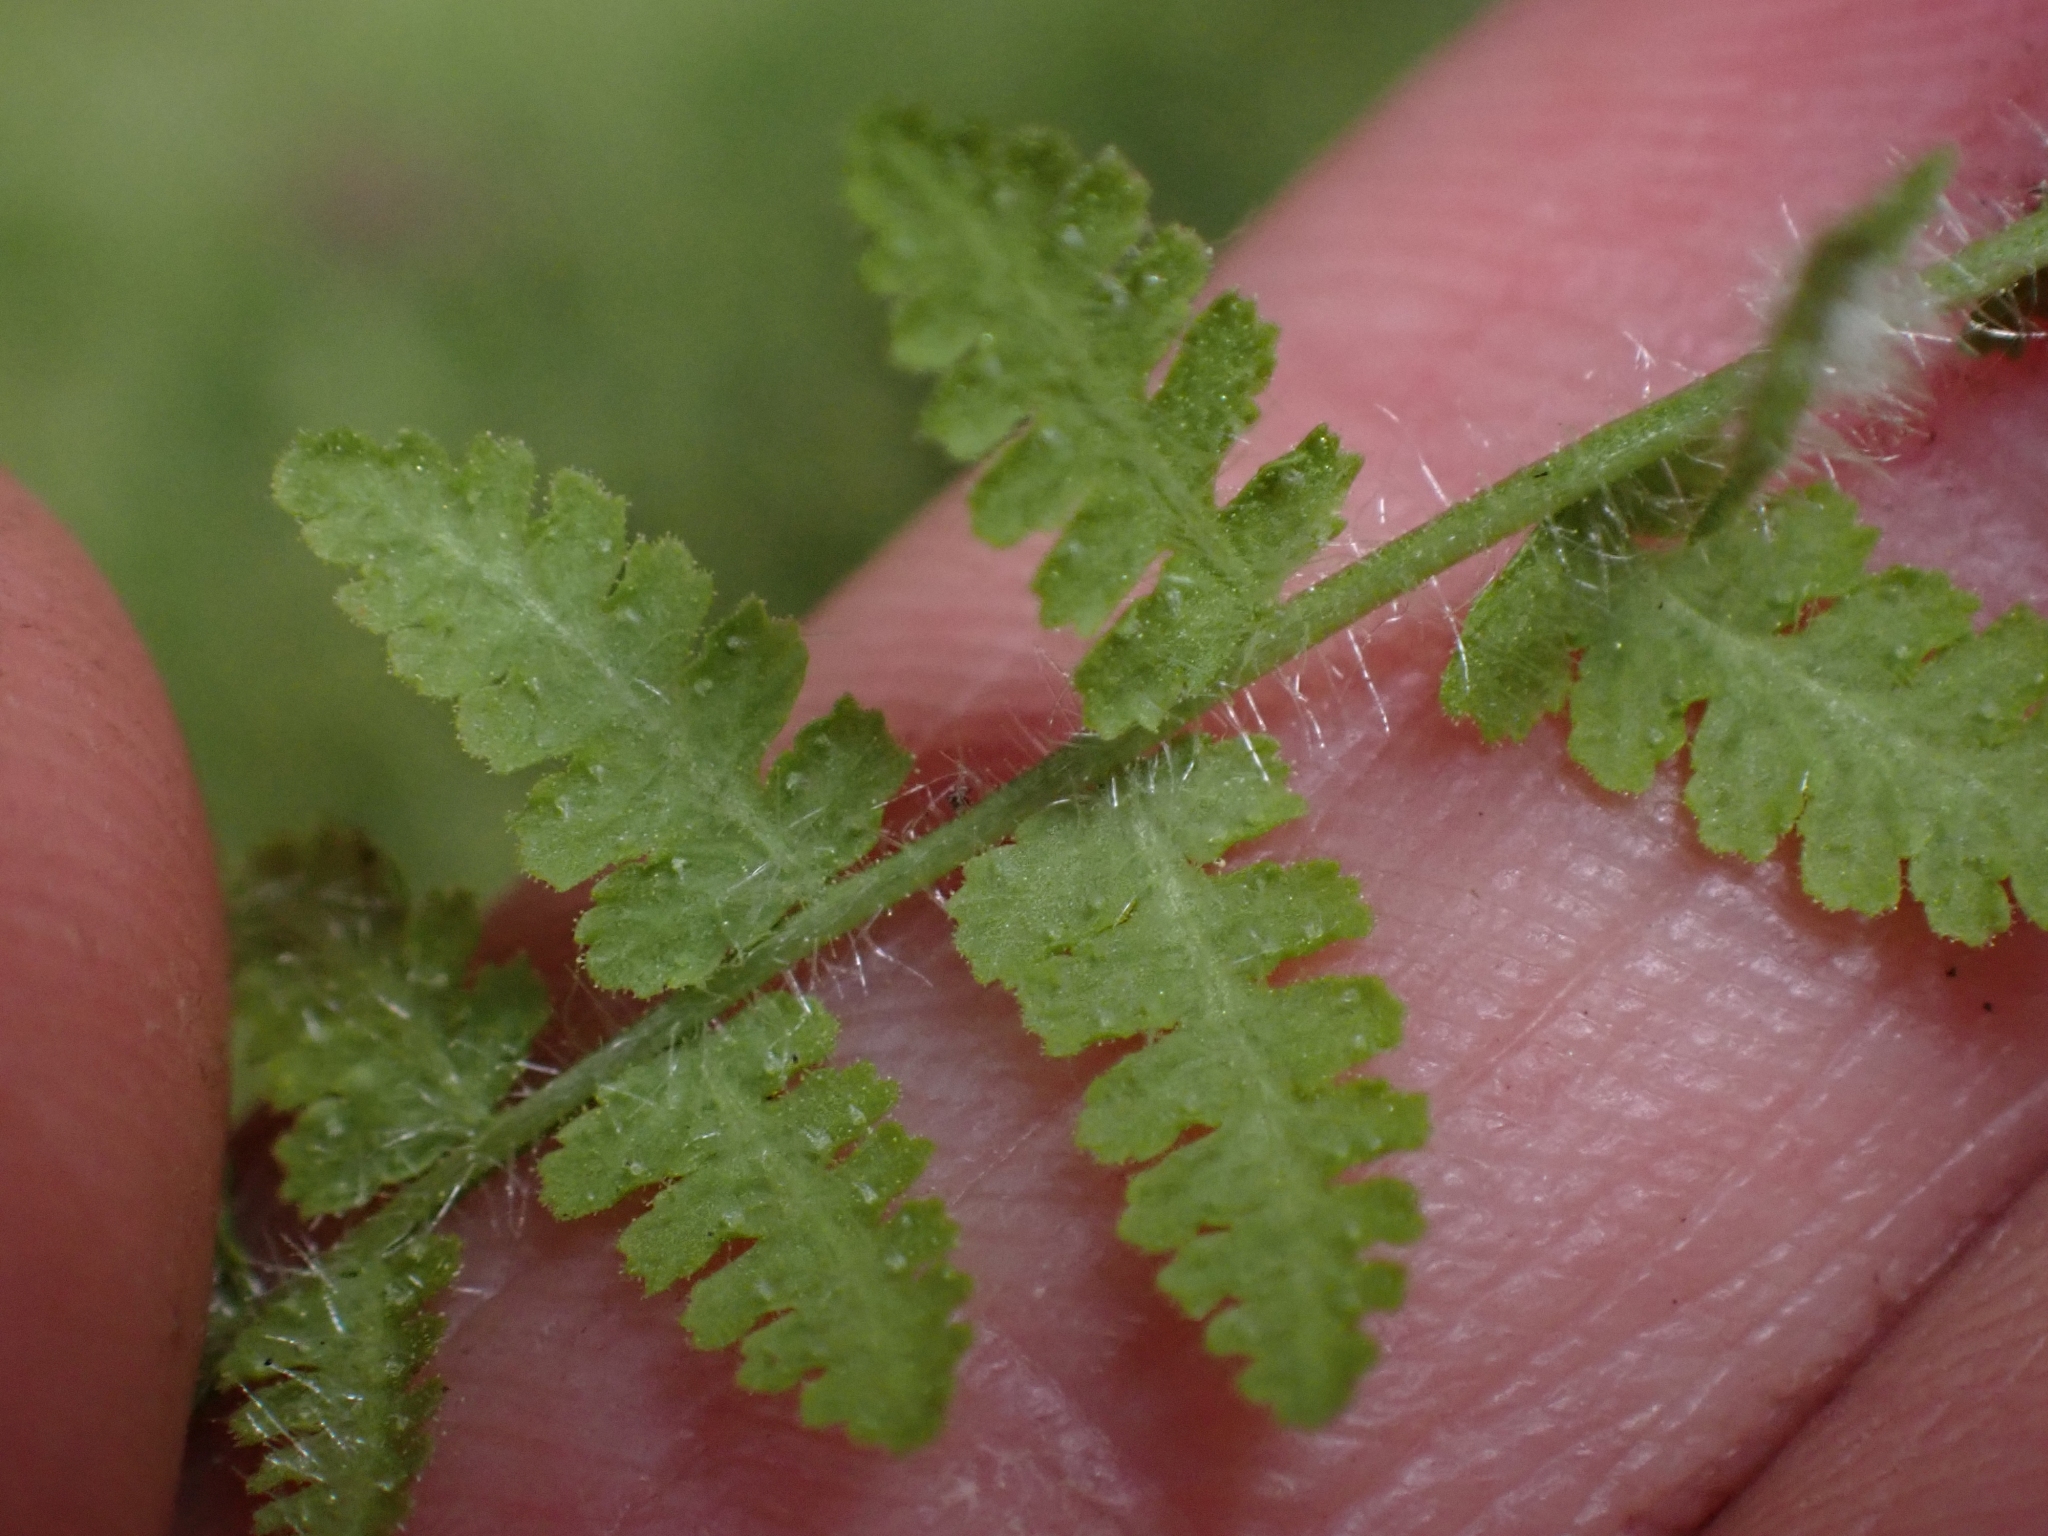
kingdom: Plantae
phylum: Tracheophyta
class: Polypodiopsida
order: Polypodiales
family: Woodsiaceae
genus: Physematium
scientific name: Physematium scopulinum
